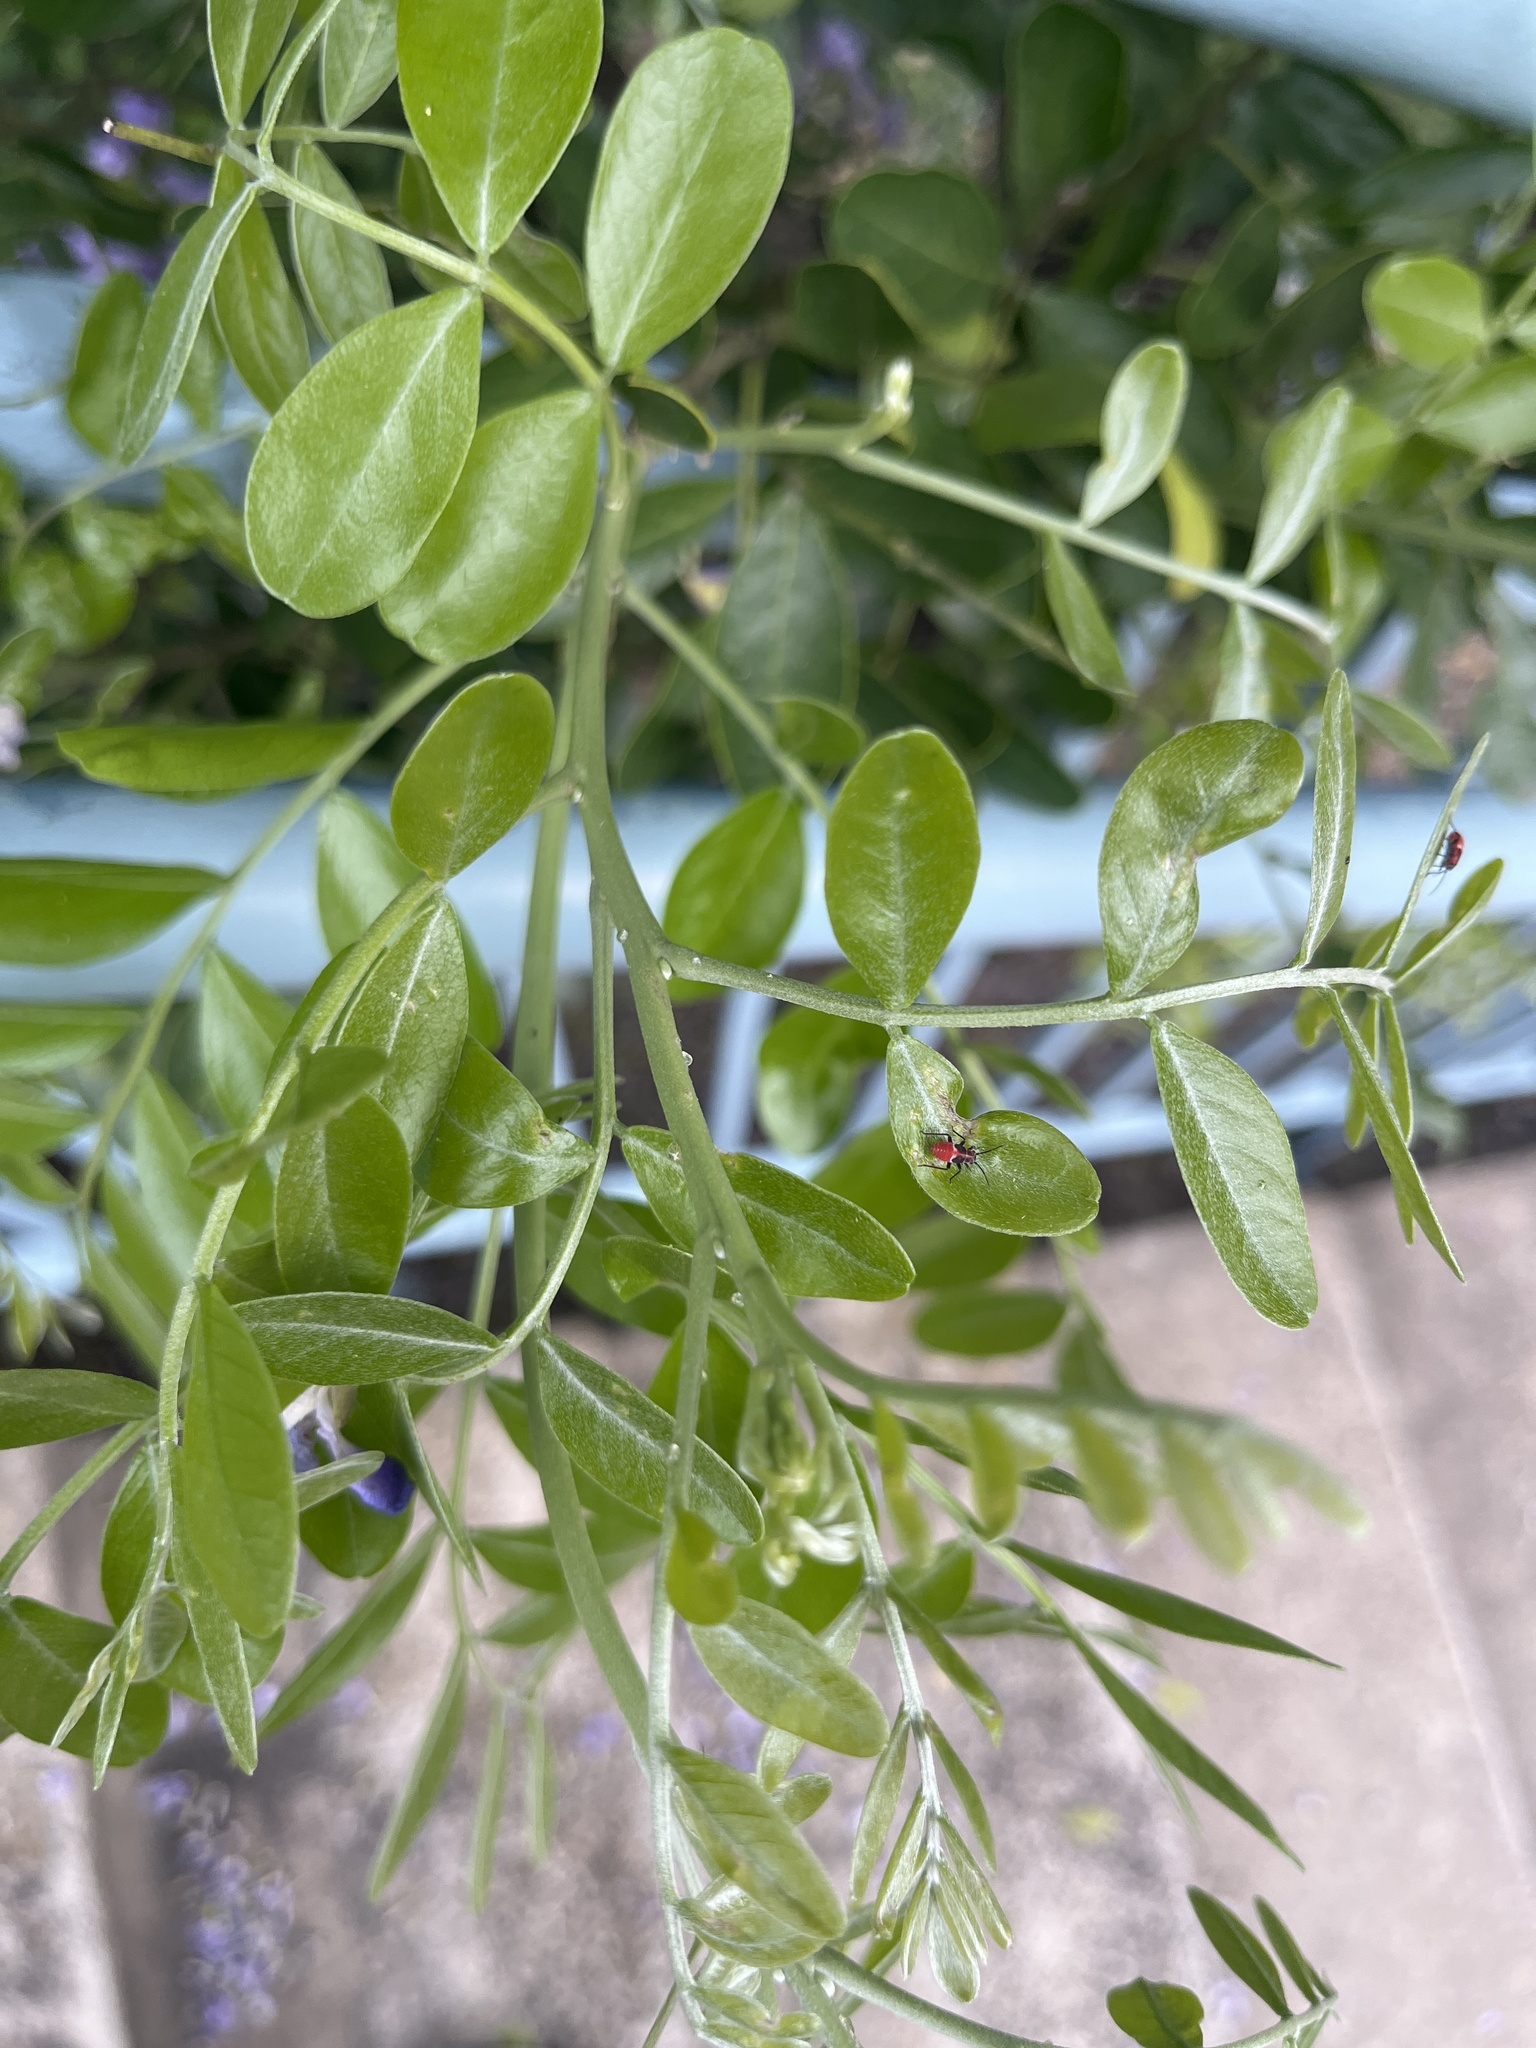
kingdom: Animalia
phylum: Arthropoda
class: Insecta
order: Hemiptera
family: Miridae
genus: Lopidea
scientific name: Lopidea major
